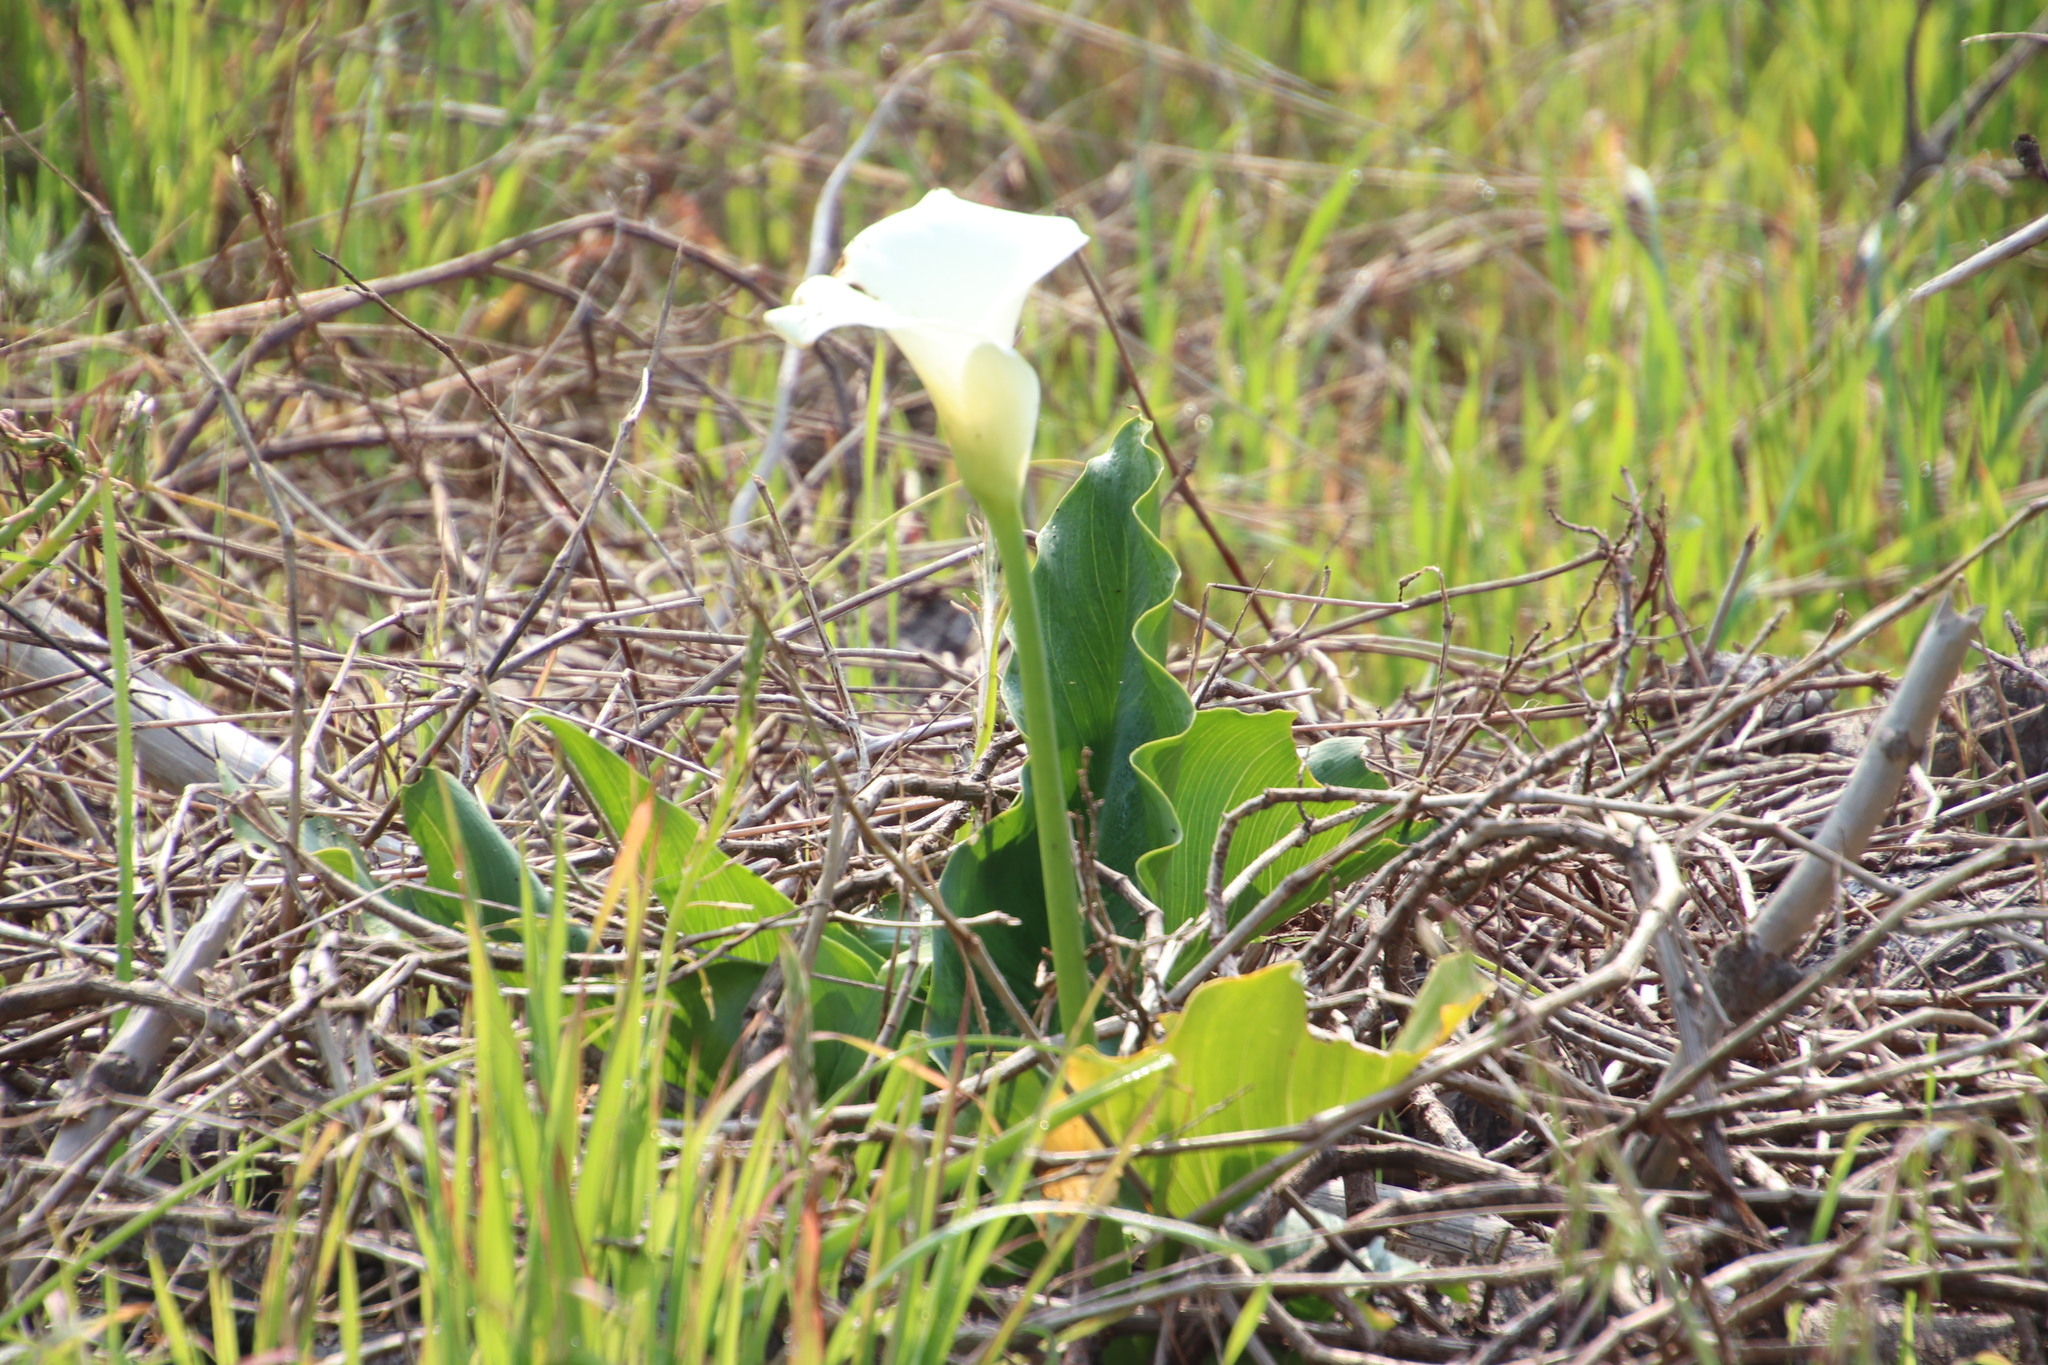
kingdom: Plantae
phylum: Tracheophyta
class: Liliopsida
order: Alismatales
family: Araceae
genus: Zantedeschia
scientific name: Zantedeschia aethiopica
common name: Altar-lily
